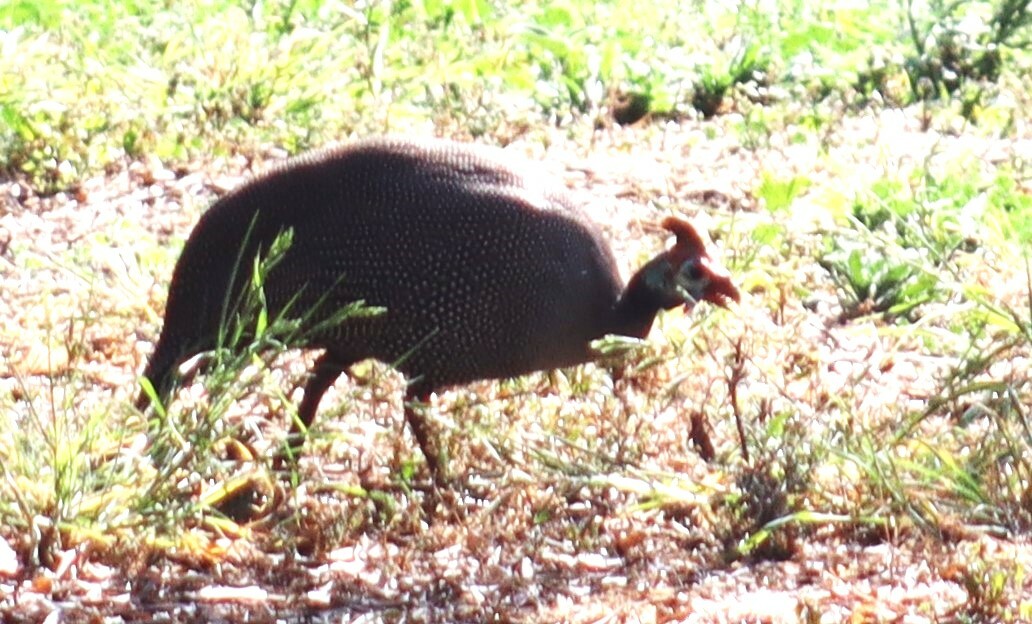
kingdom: Animalia
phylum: Chordata
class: Aves
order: Galliformes
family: Numididae
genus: Numida
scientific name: Numida meleagris
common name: Helmeted guineafowl
